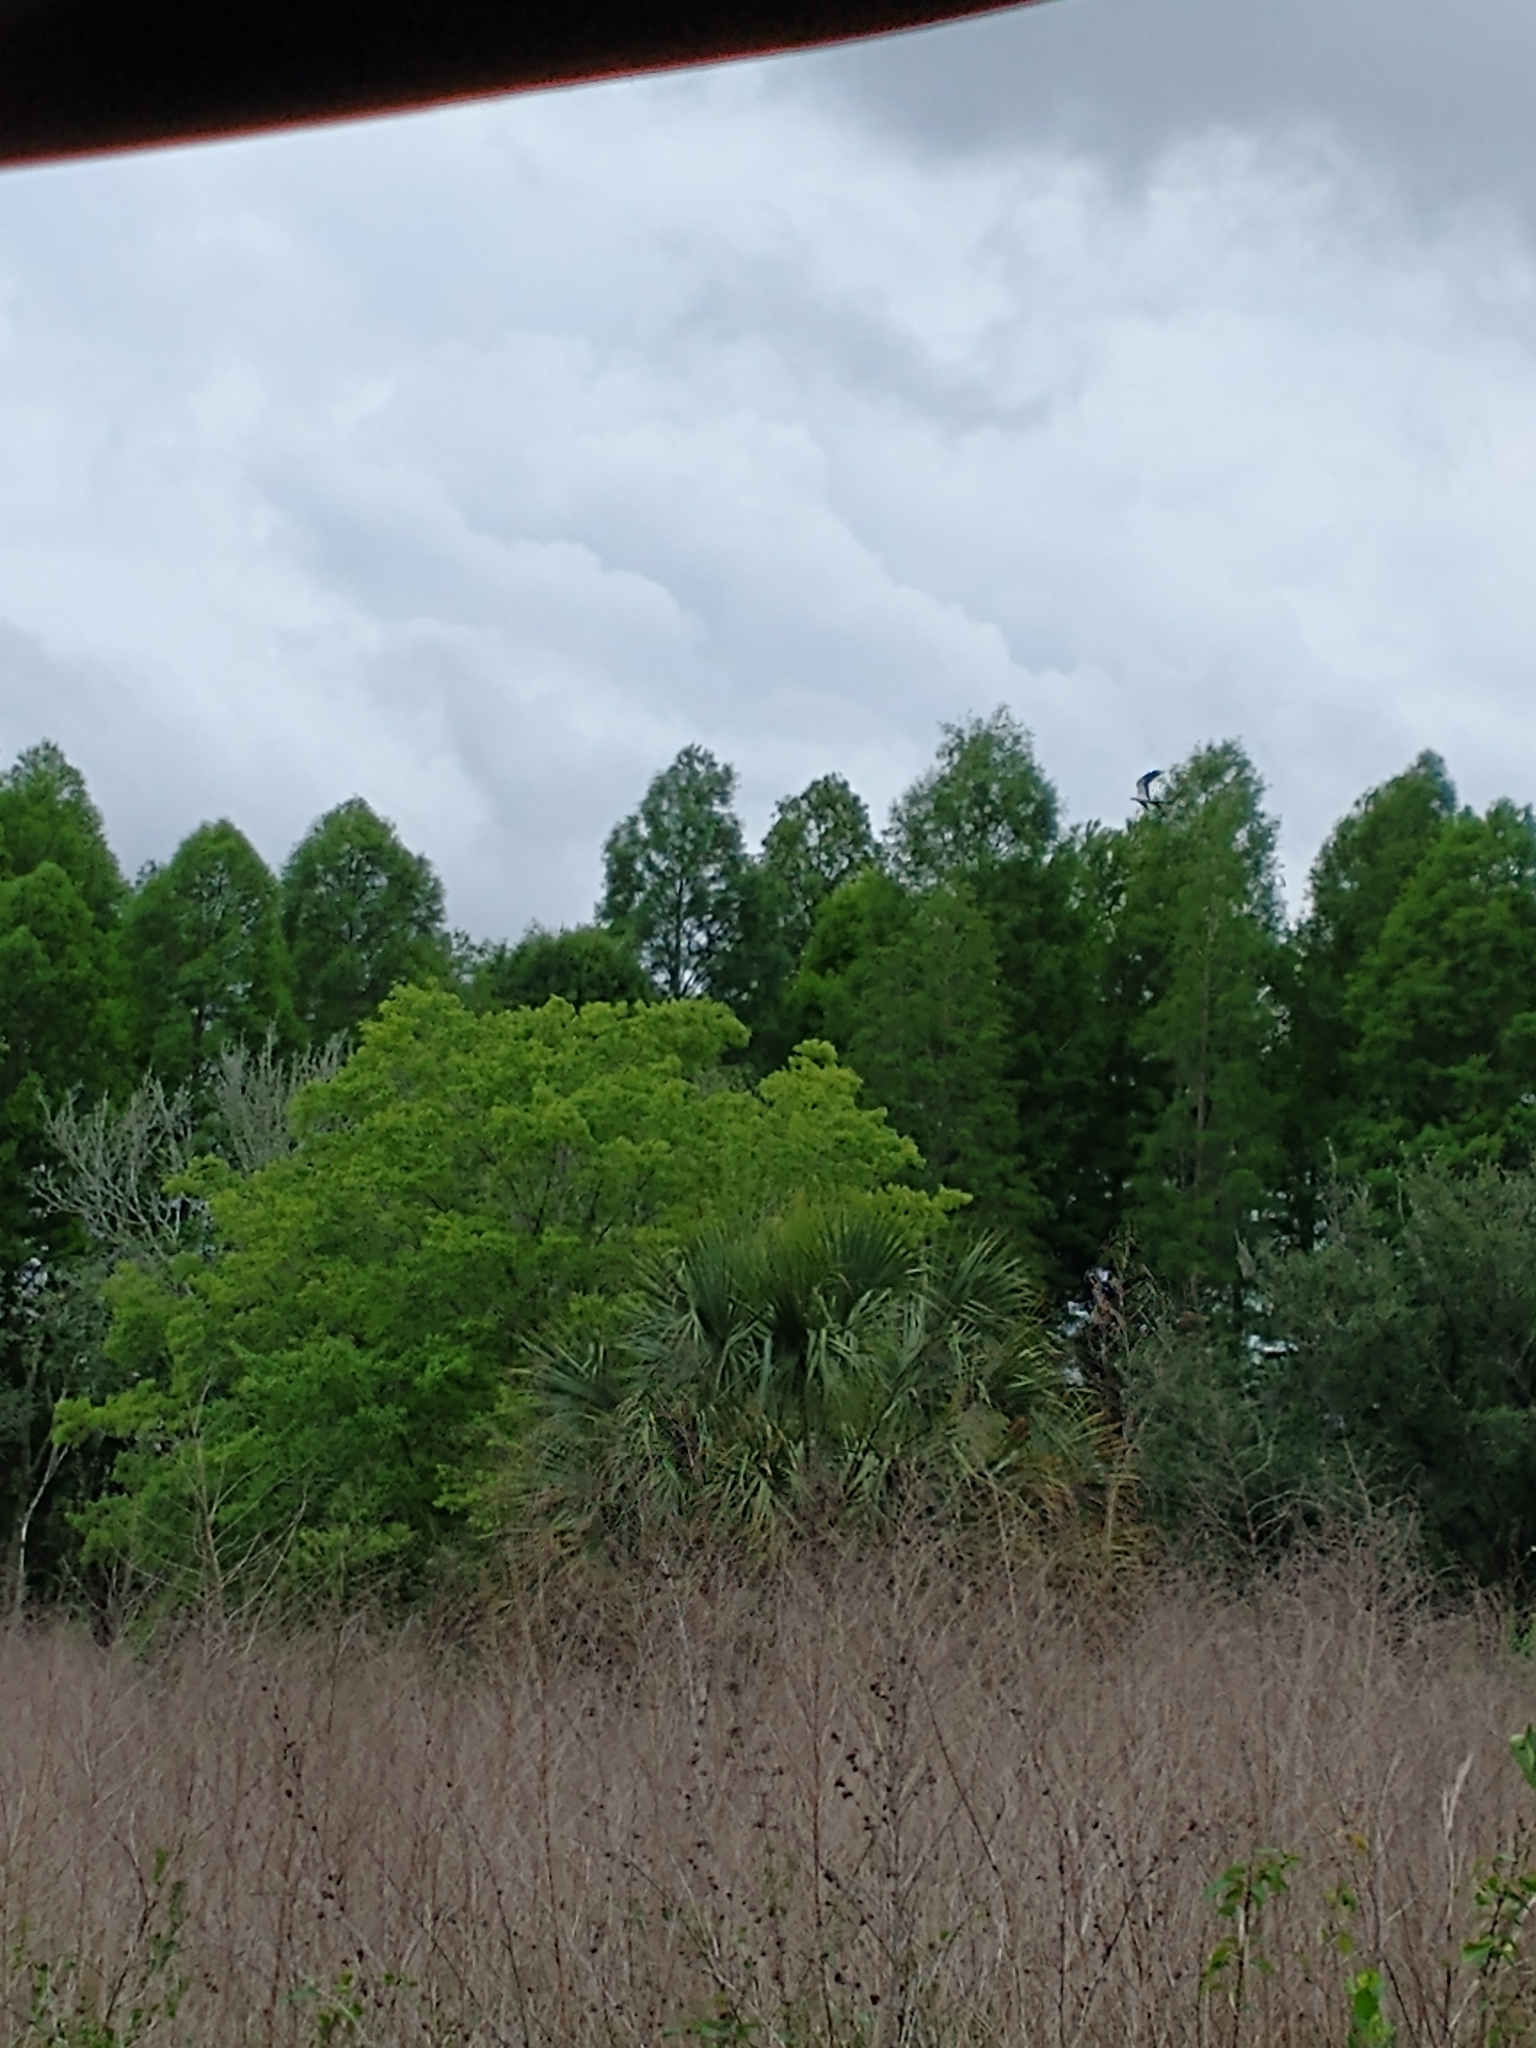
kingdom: Animalia
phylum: Chordata
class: Aves
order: Accipitriformes
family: Accipitridae
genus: Elanoides
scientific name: Elanoides forficatus
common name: Swallow-tailed kite
